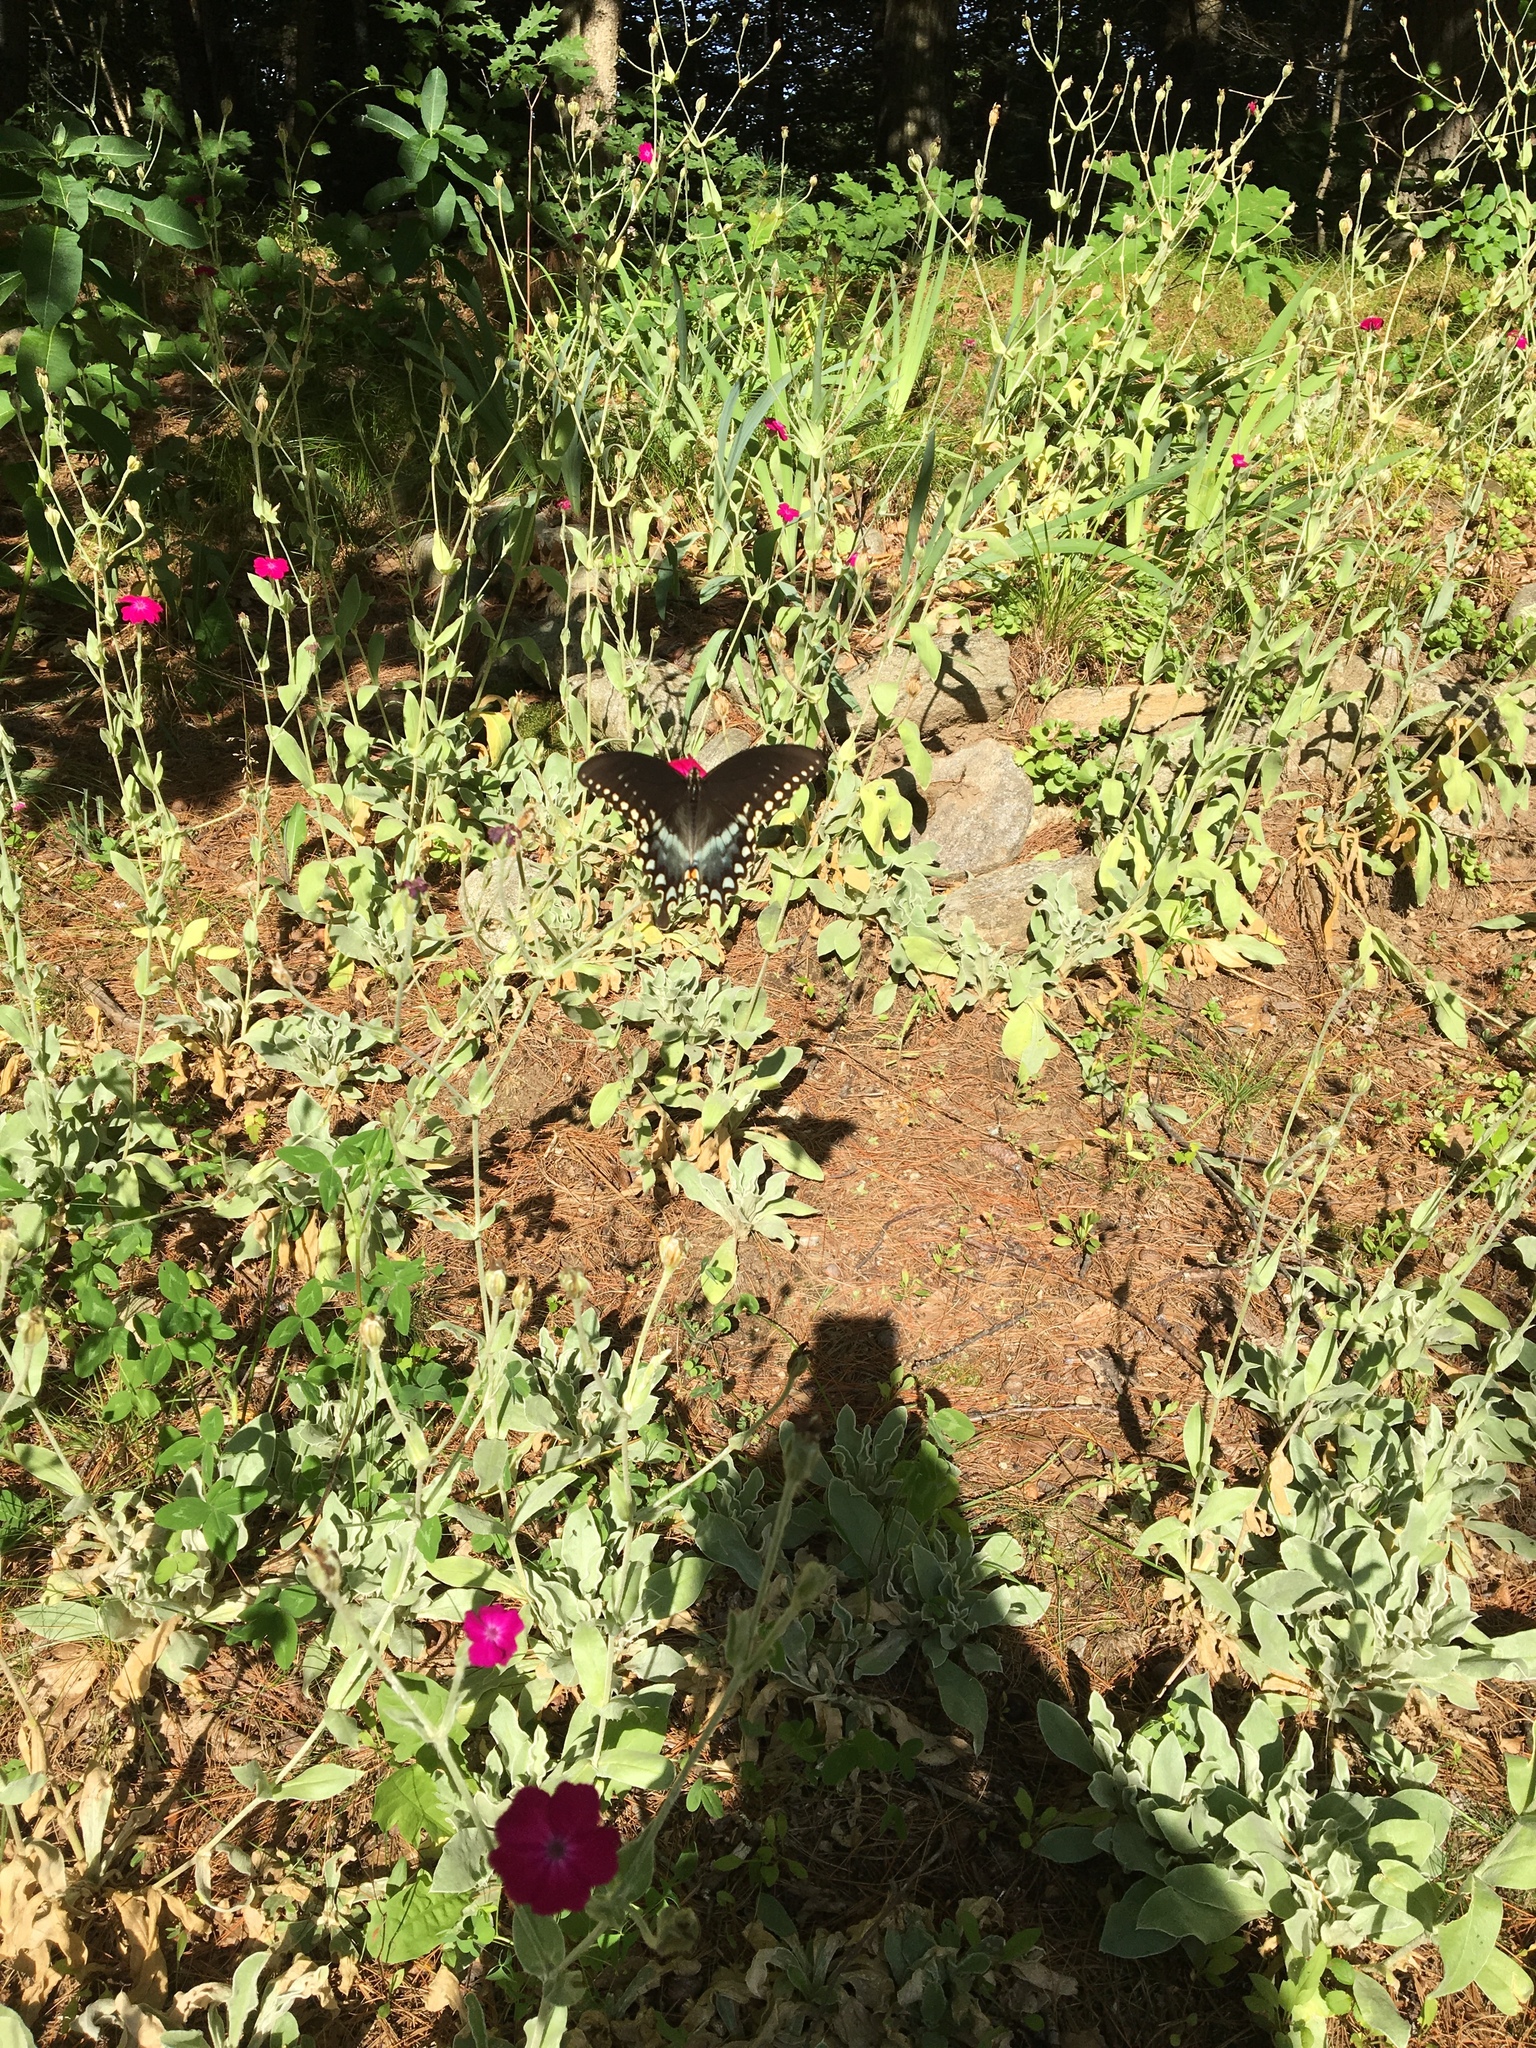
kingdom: Animalia
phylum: Arthropoda
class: Insecta
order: Lepidoptera
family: Papilionidae
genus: Papilio
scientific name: Papilio troilus
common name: Spicebush swallowtail
